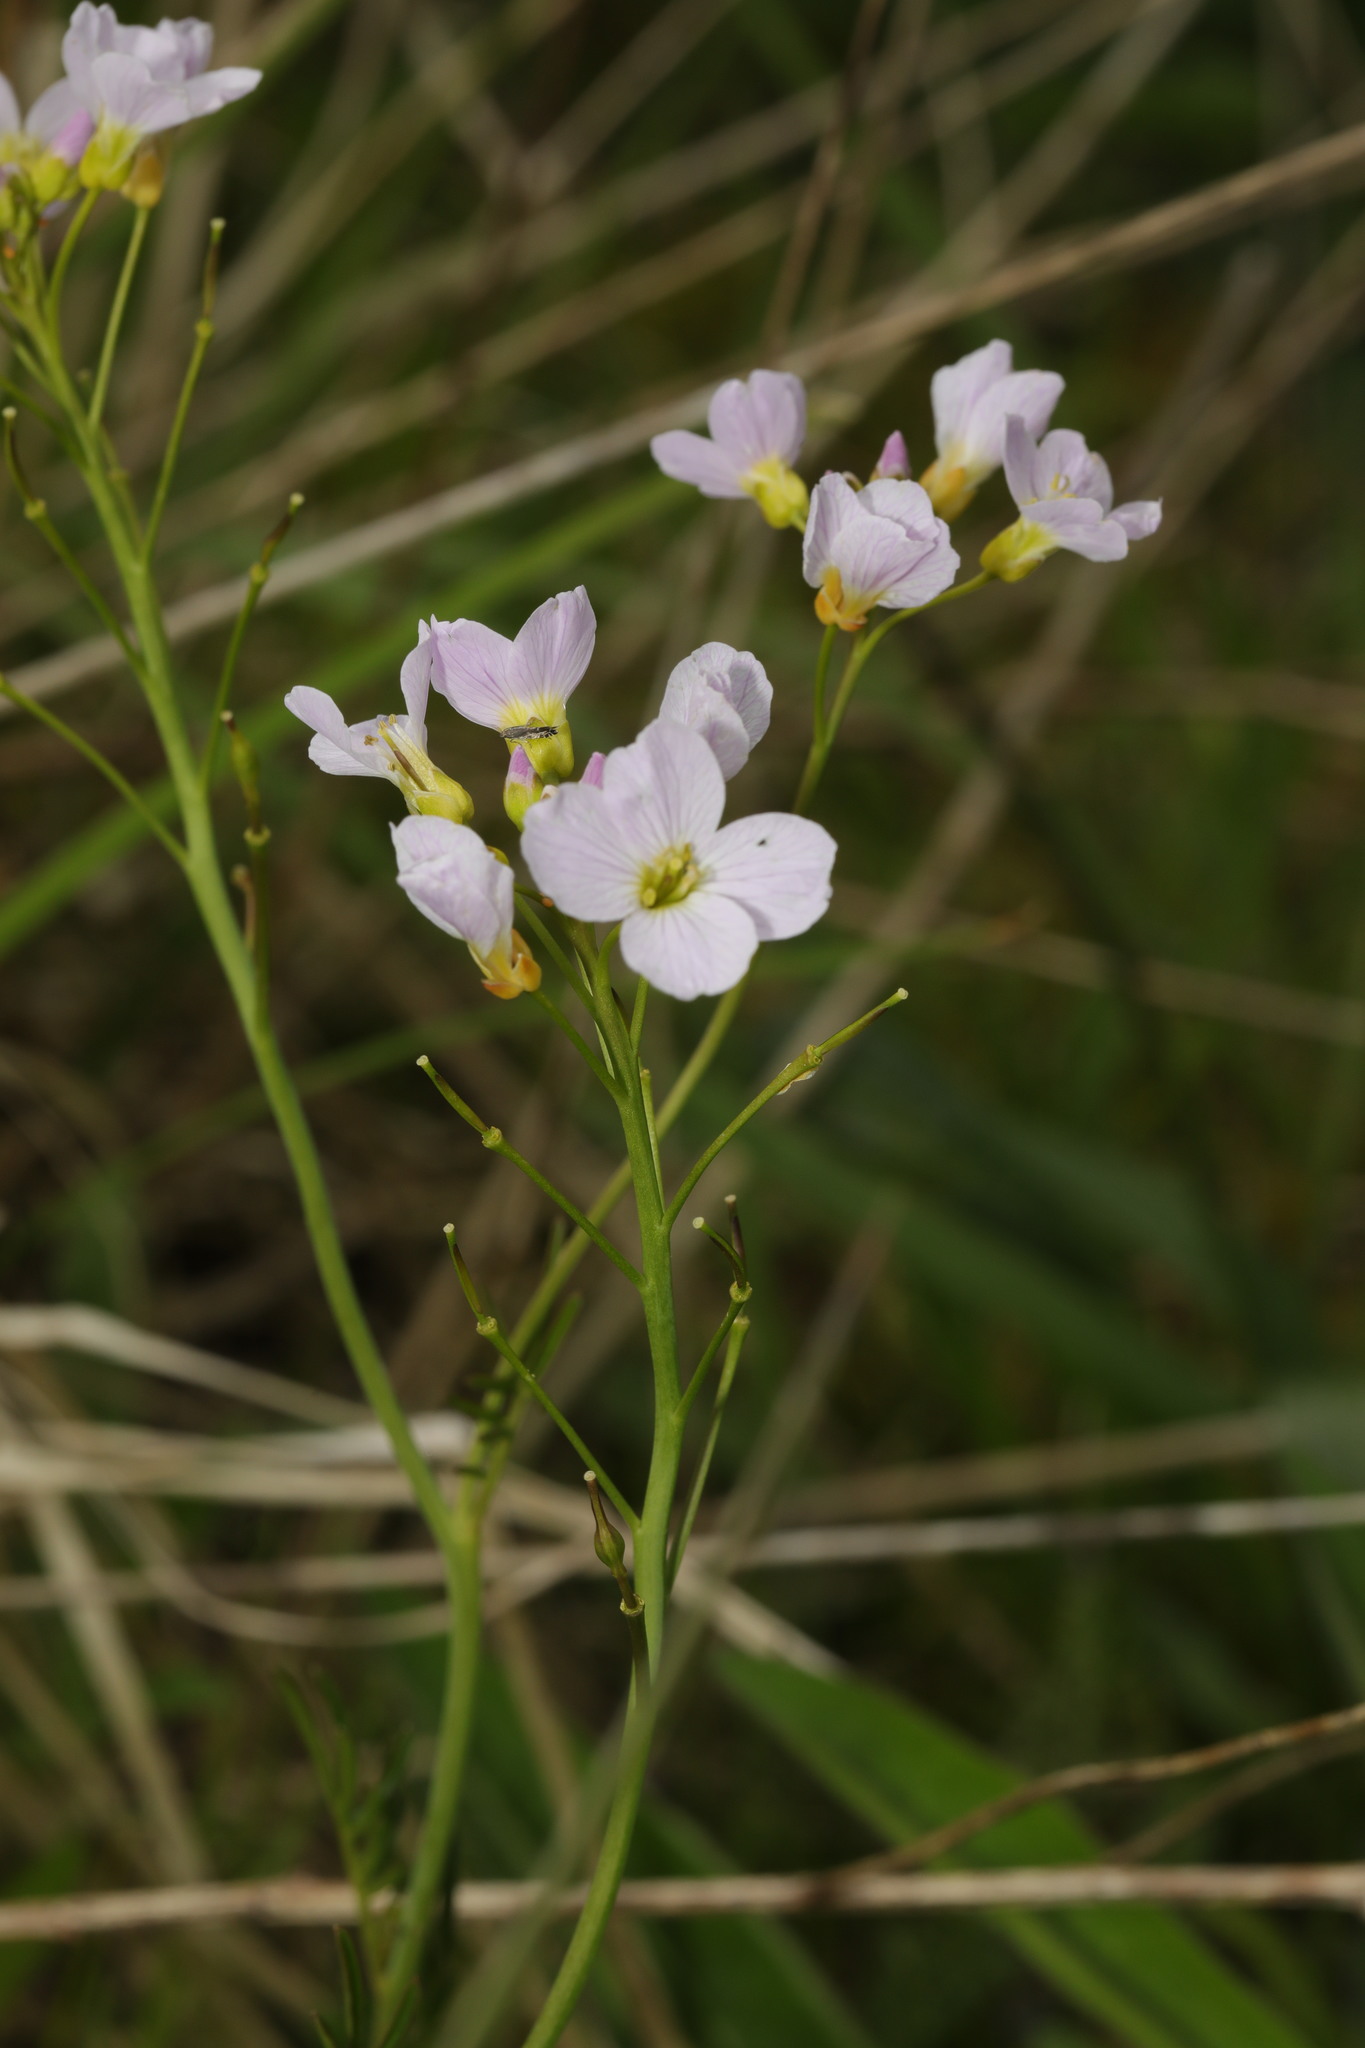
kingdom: Plantae
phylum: Tracheophyta
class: Magnoliopsida
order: Brassicales
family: Brassicaceae
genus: Cardamine
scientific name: Cardamine pratensis
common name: Cuckoo flower
